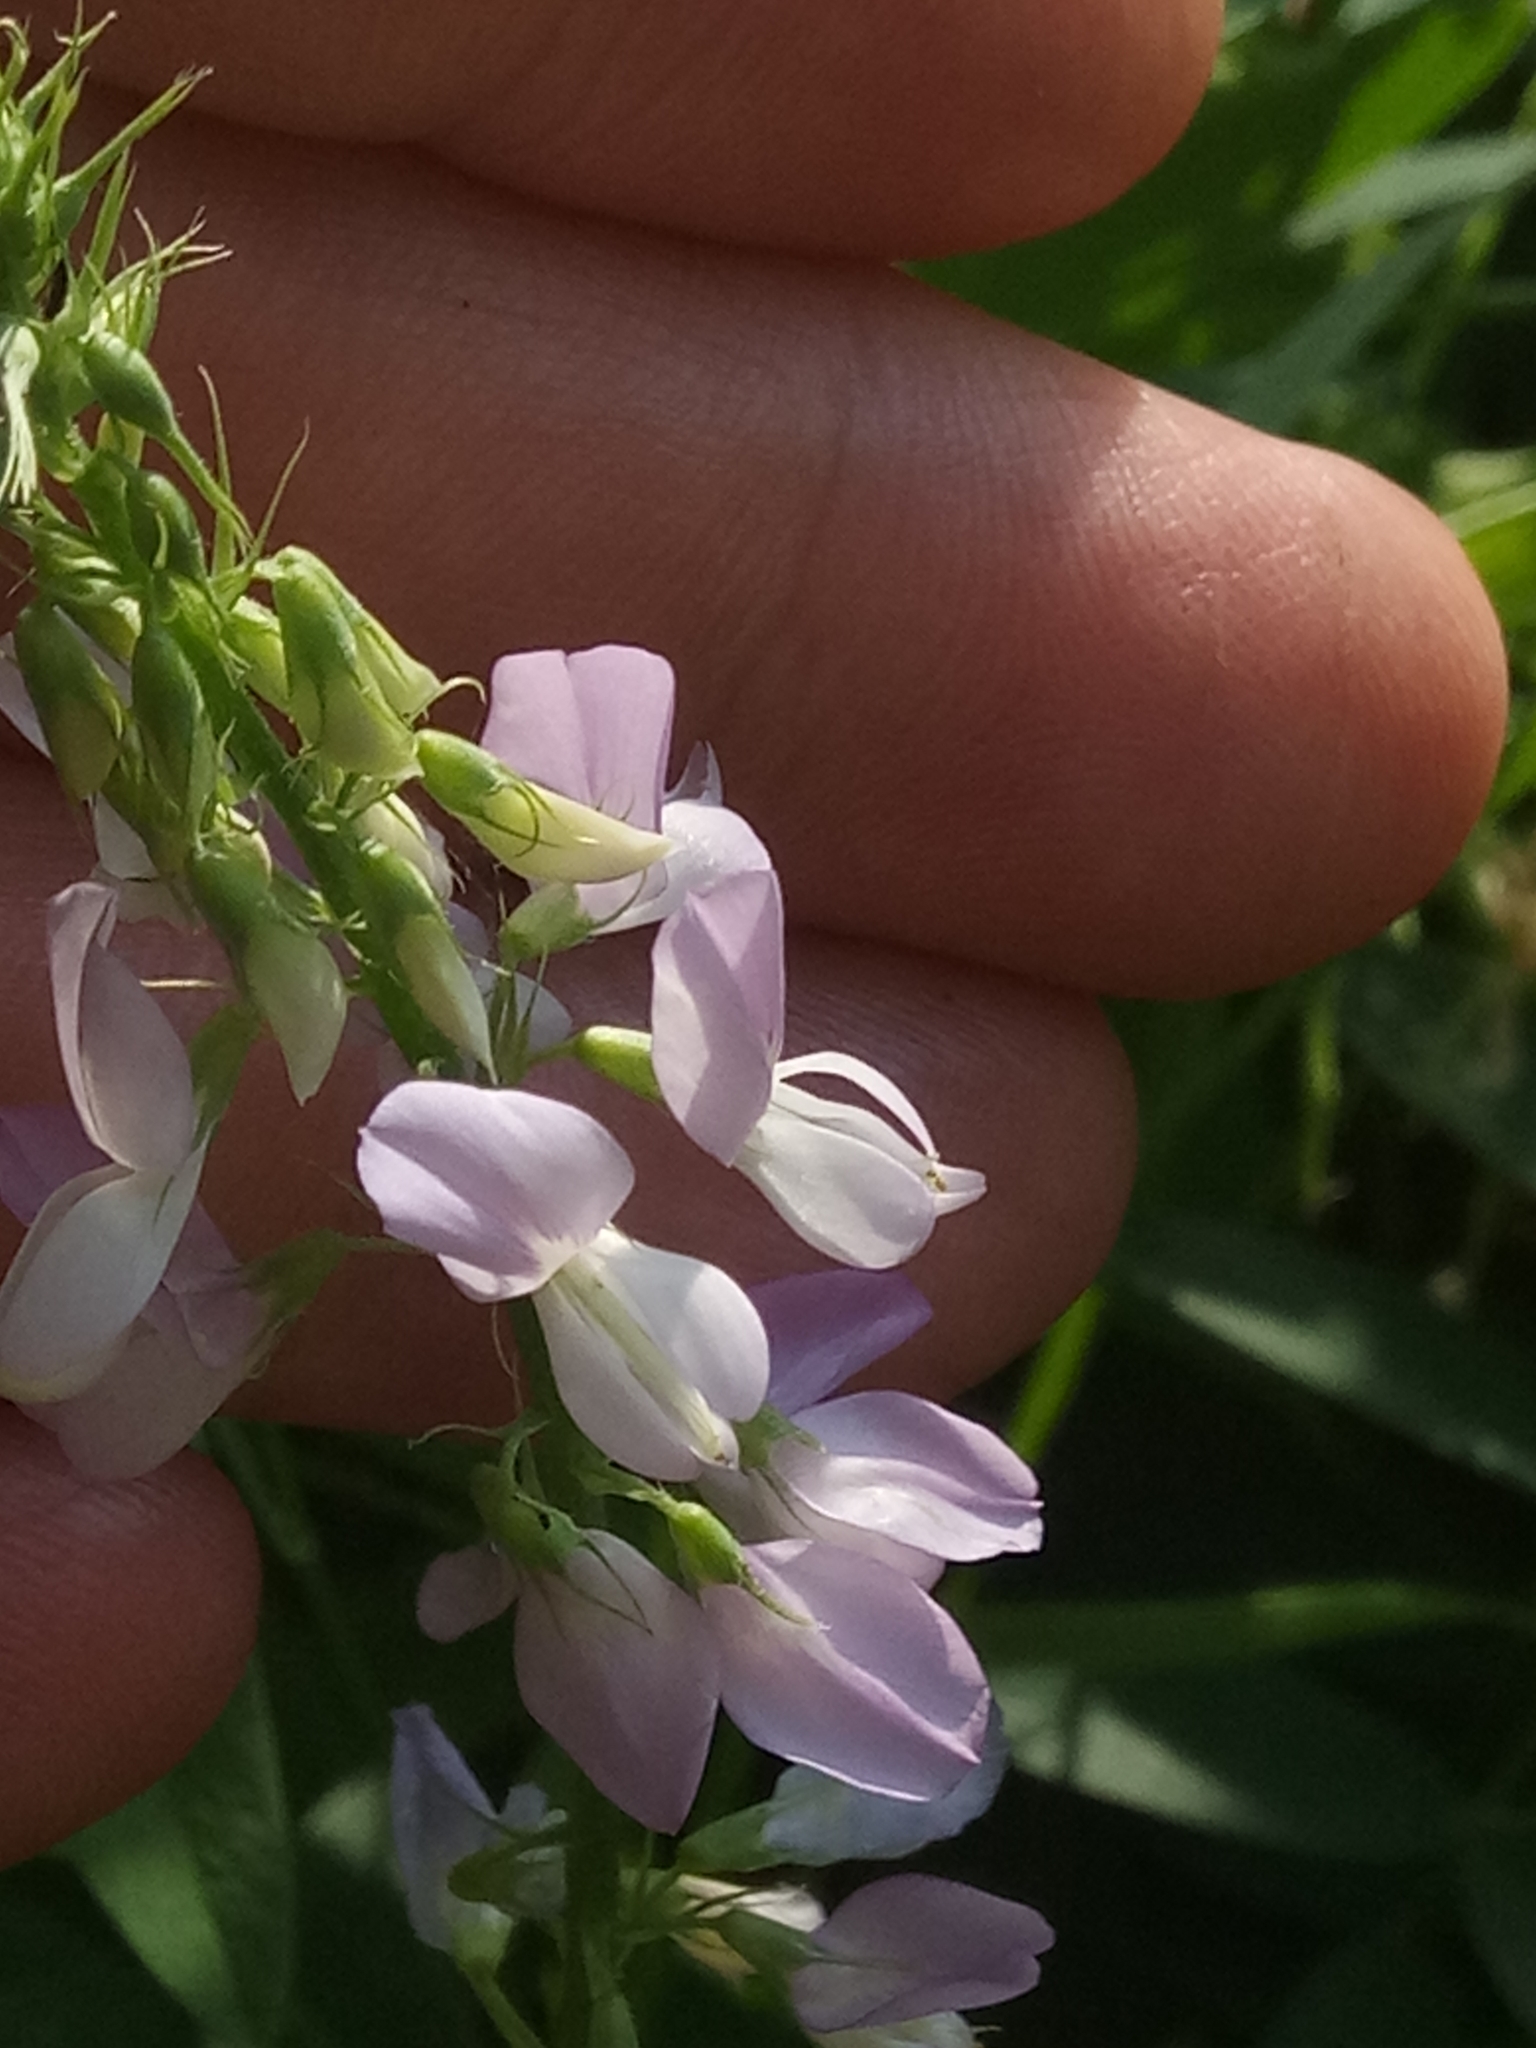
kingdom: Plantae
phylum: Tracheophyta
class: Magnoliopsida
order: Fabales
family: Fabaceae
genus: Galega
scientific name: Galega officinalis
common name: Goat's-rue
